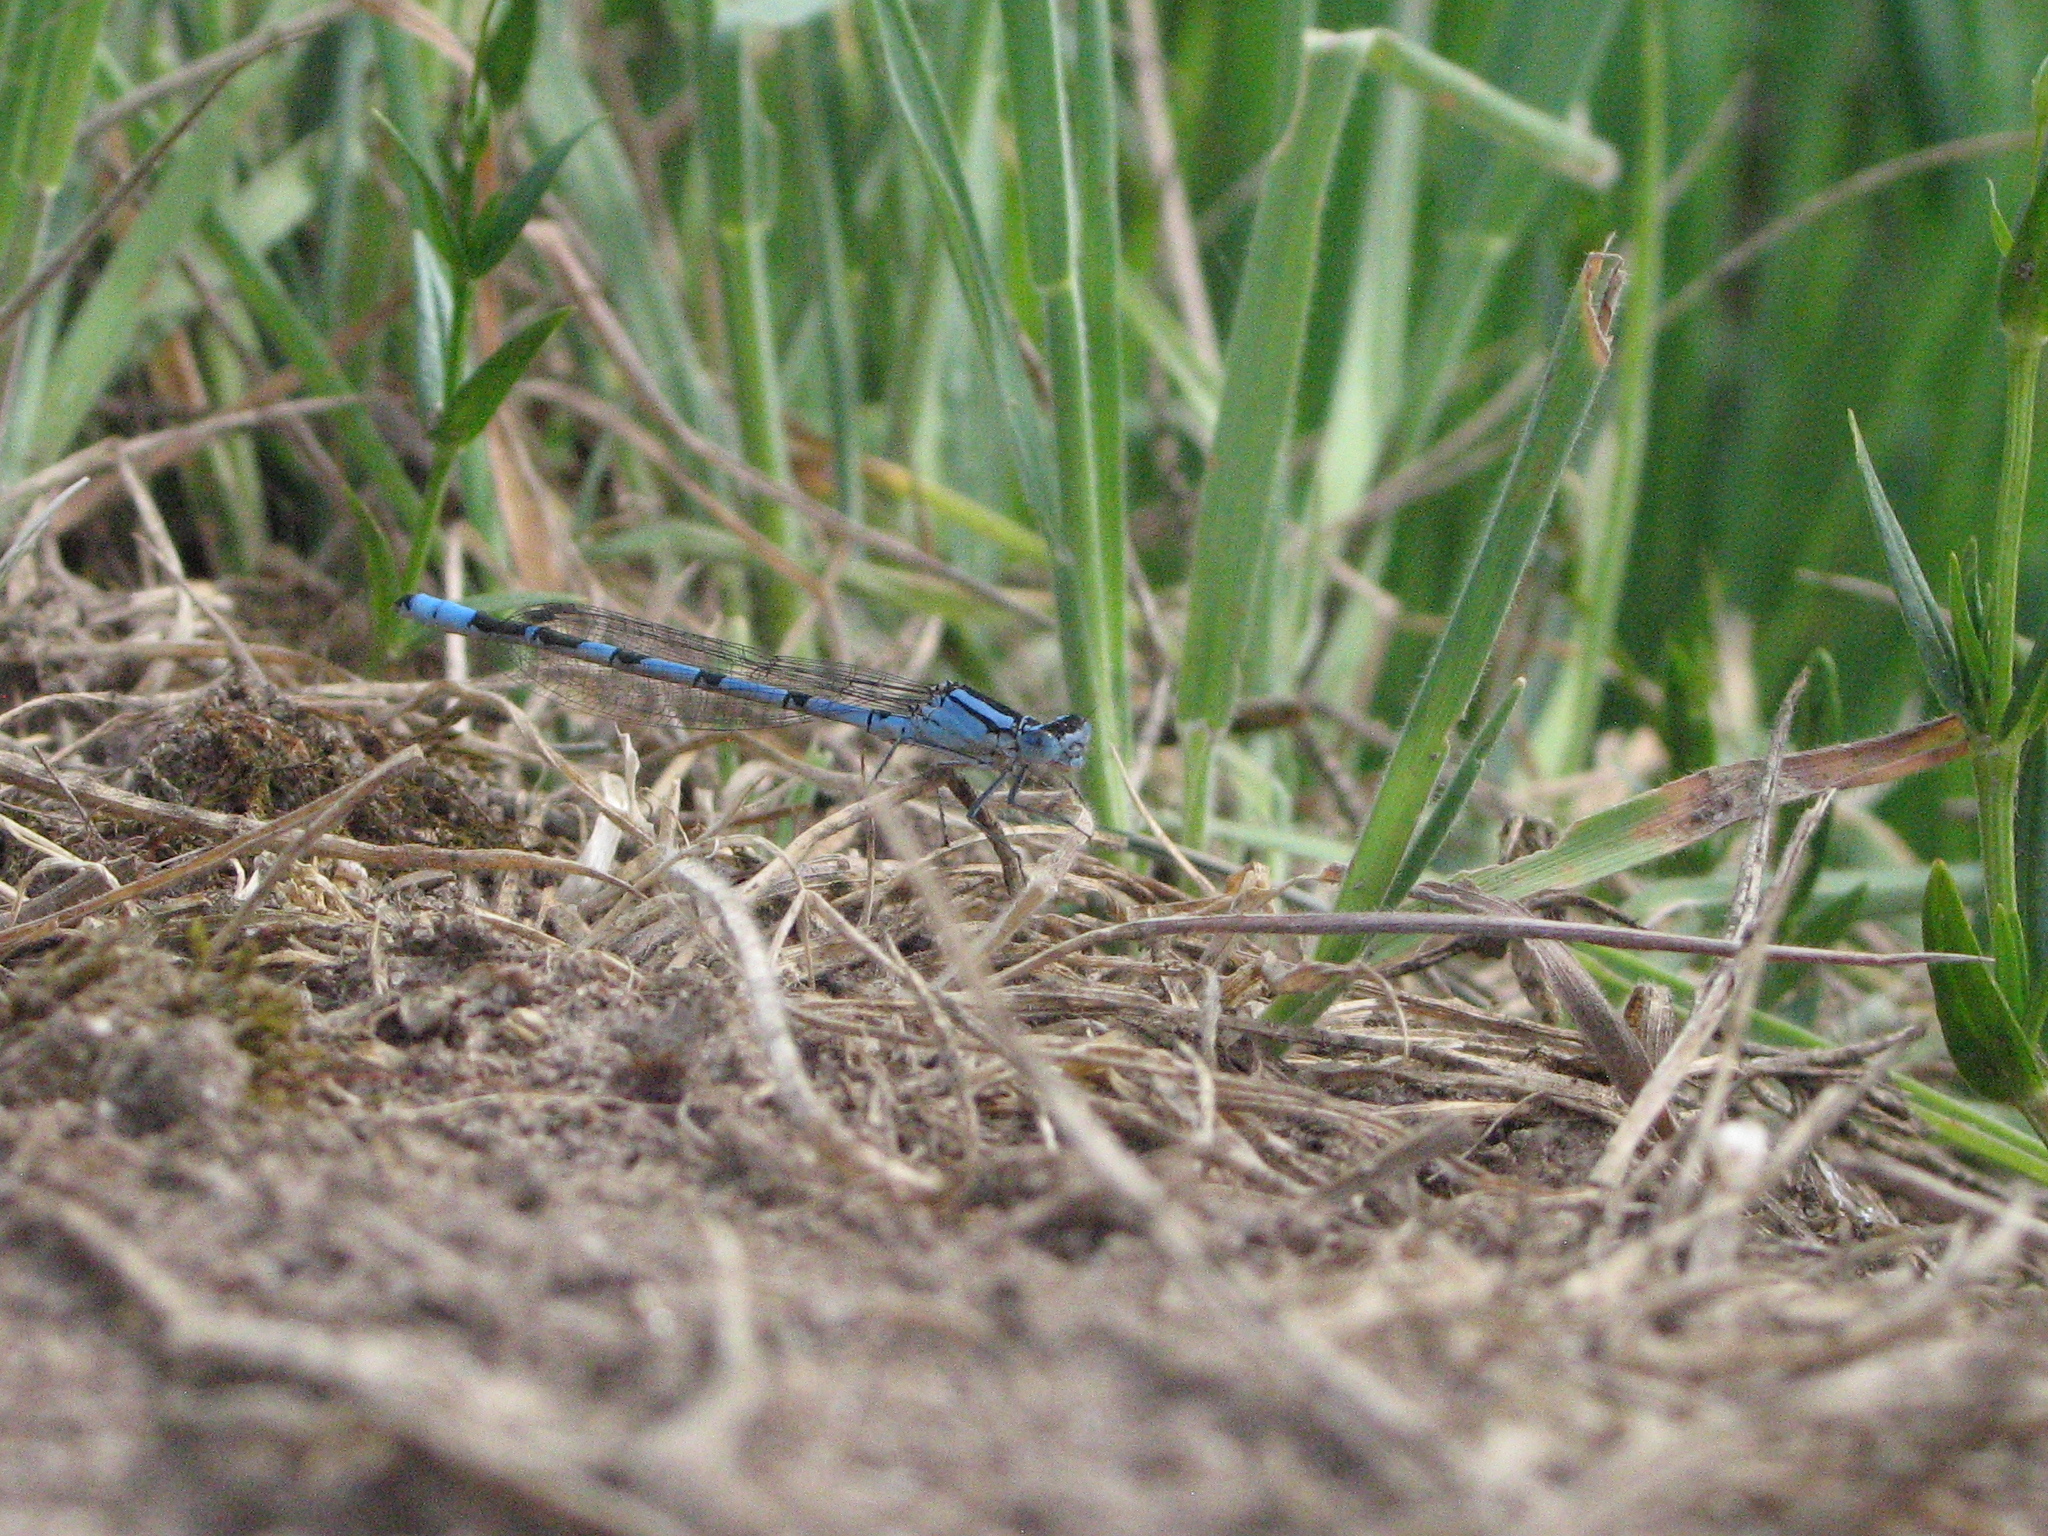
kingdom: Animalia
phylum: Arthropoda
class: Insecta
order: Odonata
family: Coenagrionidae
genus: Enallagma
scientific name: Enallagma cyathigerum
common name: Common blue damselfly
